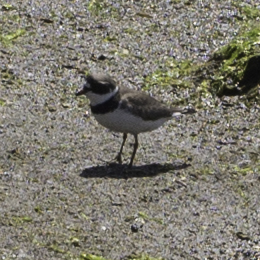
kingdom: Animalia
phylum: Chordata
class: Aves
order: Charadriiformes
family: Charadriidae
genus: Charadrius
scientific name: Charadrius semipalmatus
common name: Semipalmated plover
